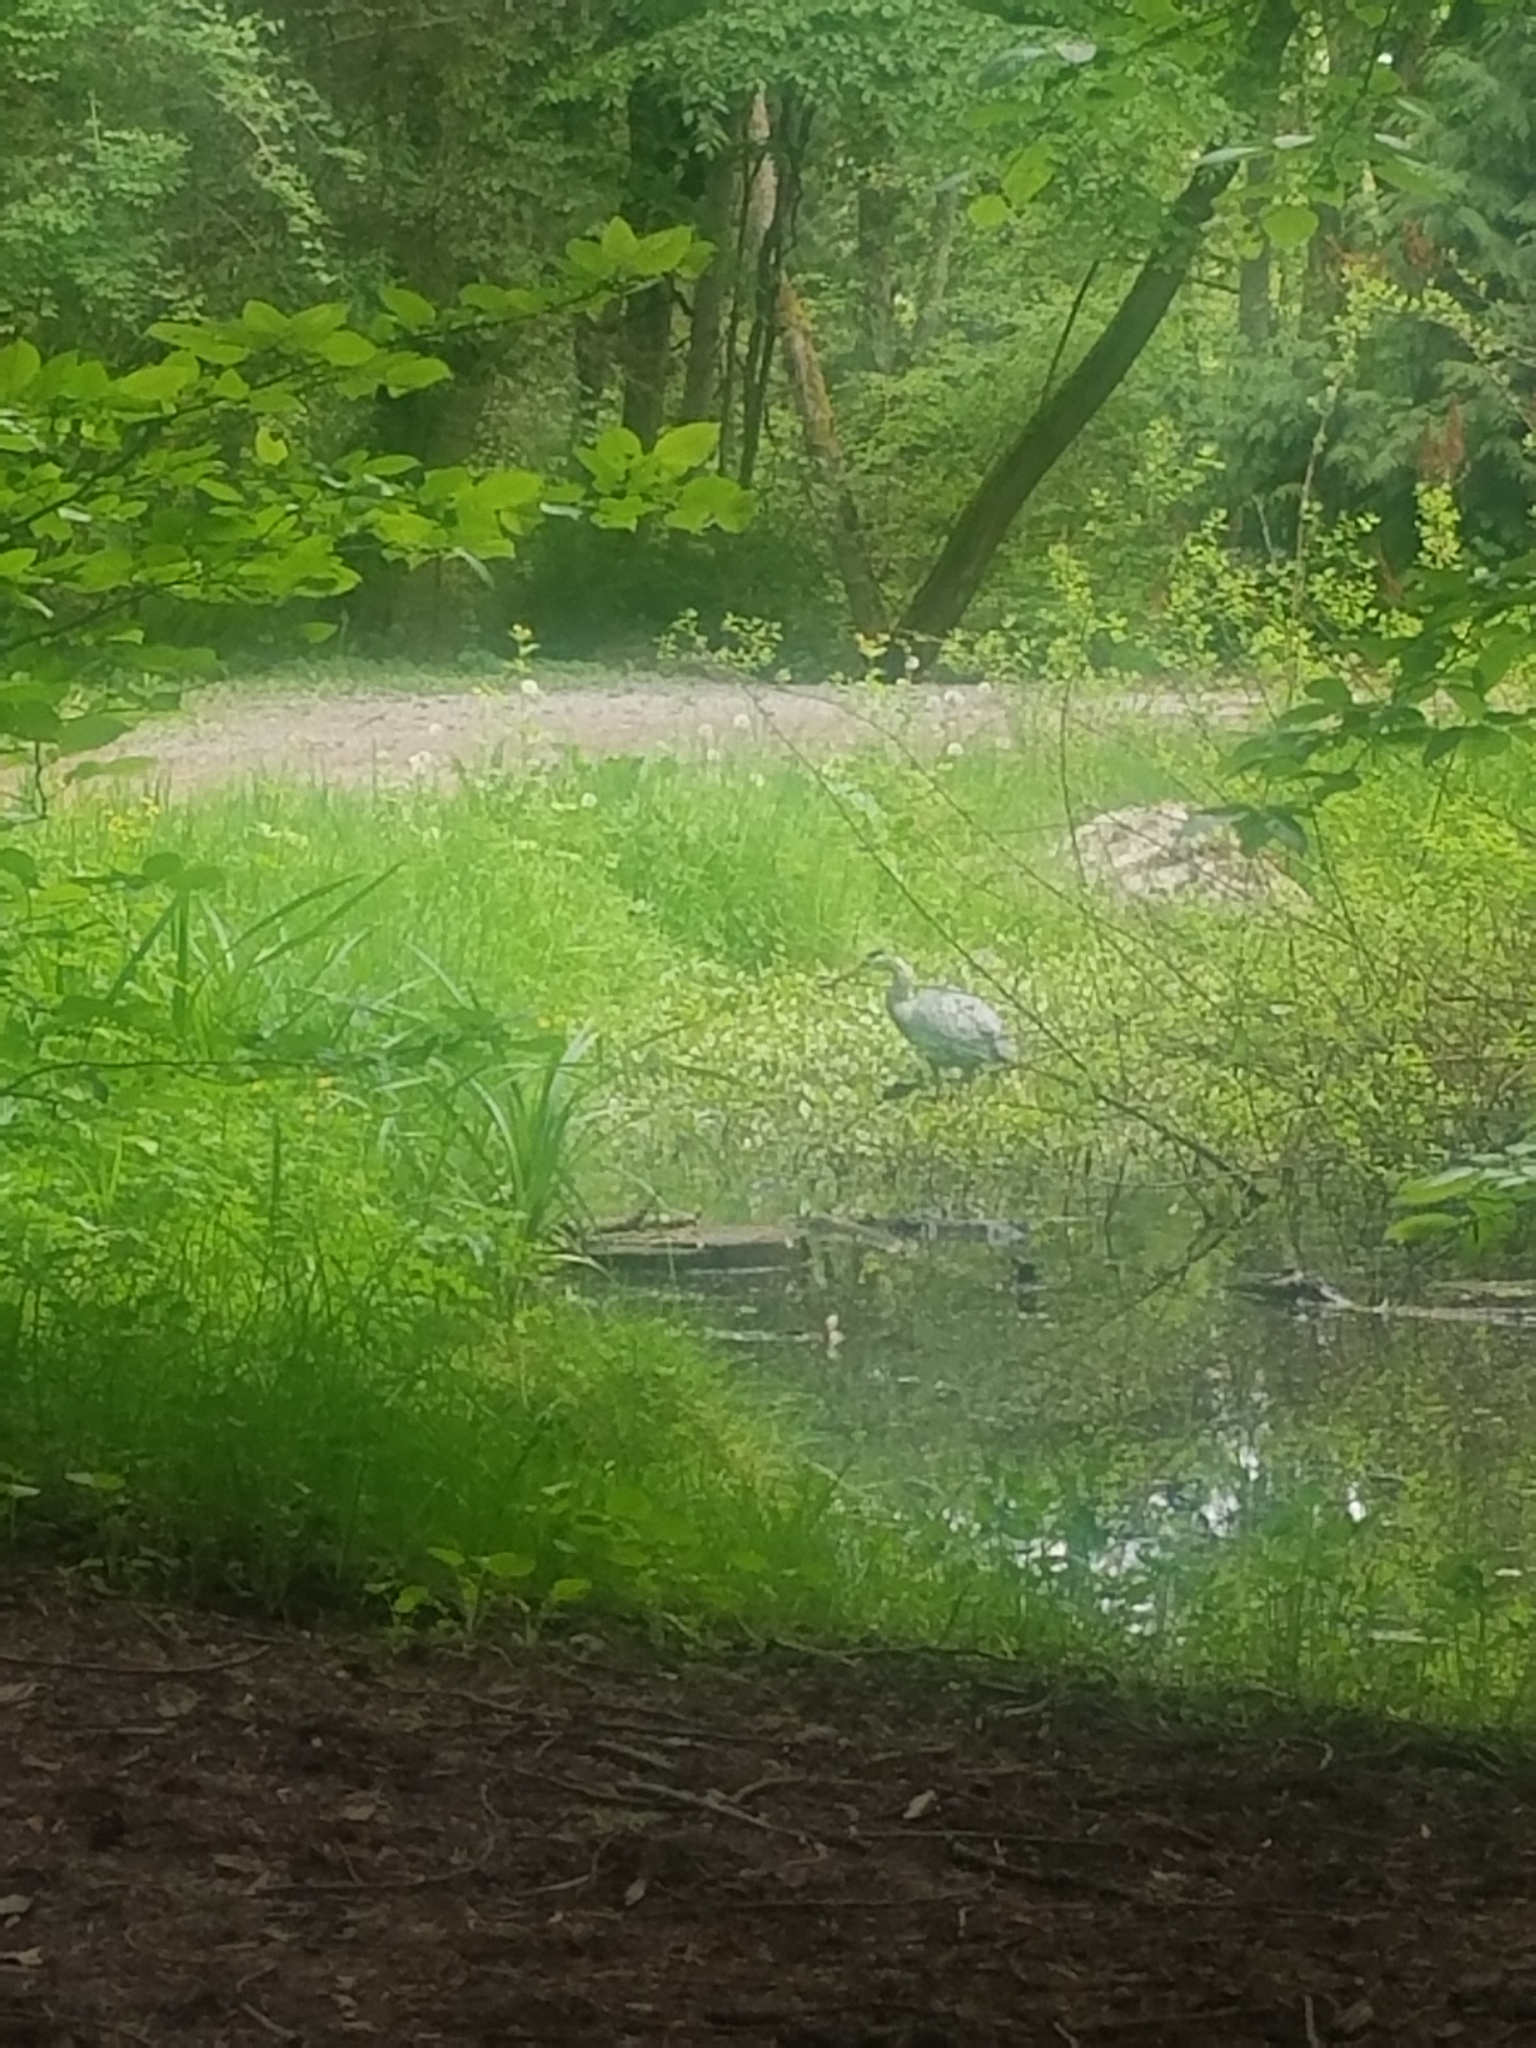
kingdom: Animalia
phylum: Chordata
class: Aves
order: Pelecaniformes
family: Ardeidae
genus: Ardea
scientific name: Ardea herodias
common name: Great blue heron
